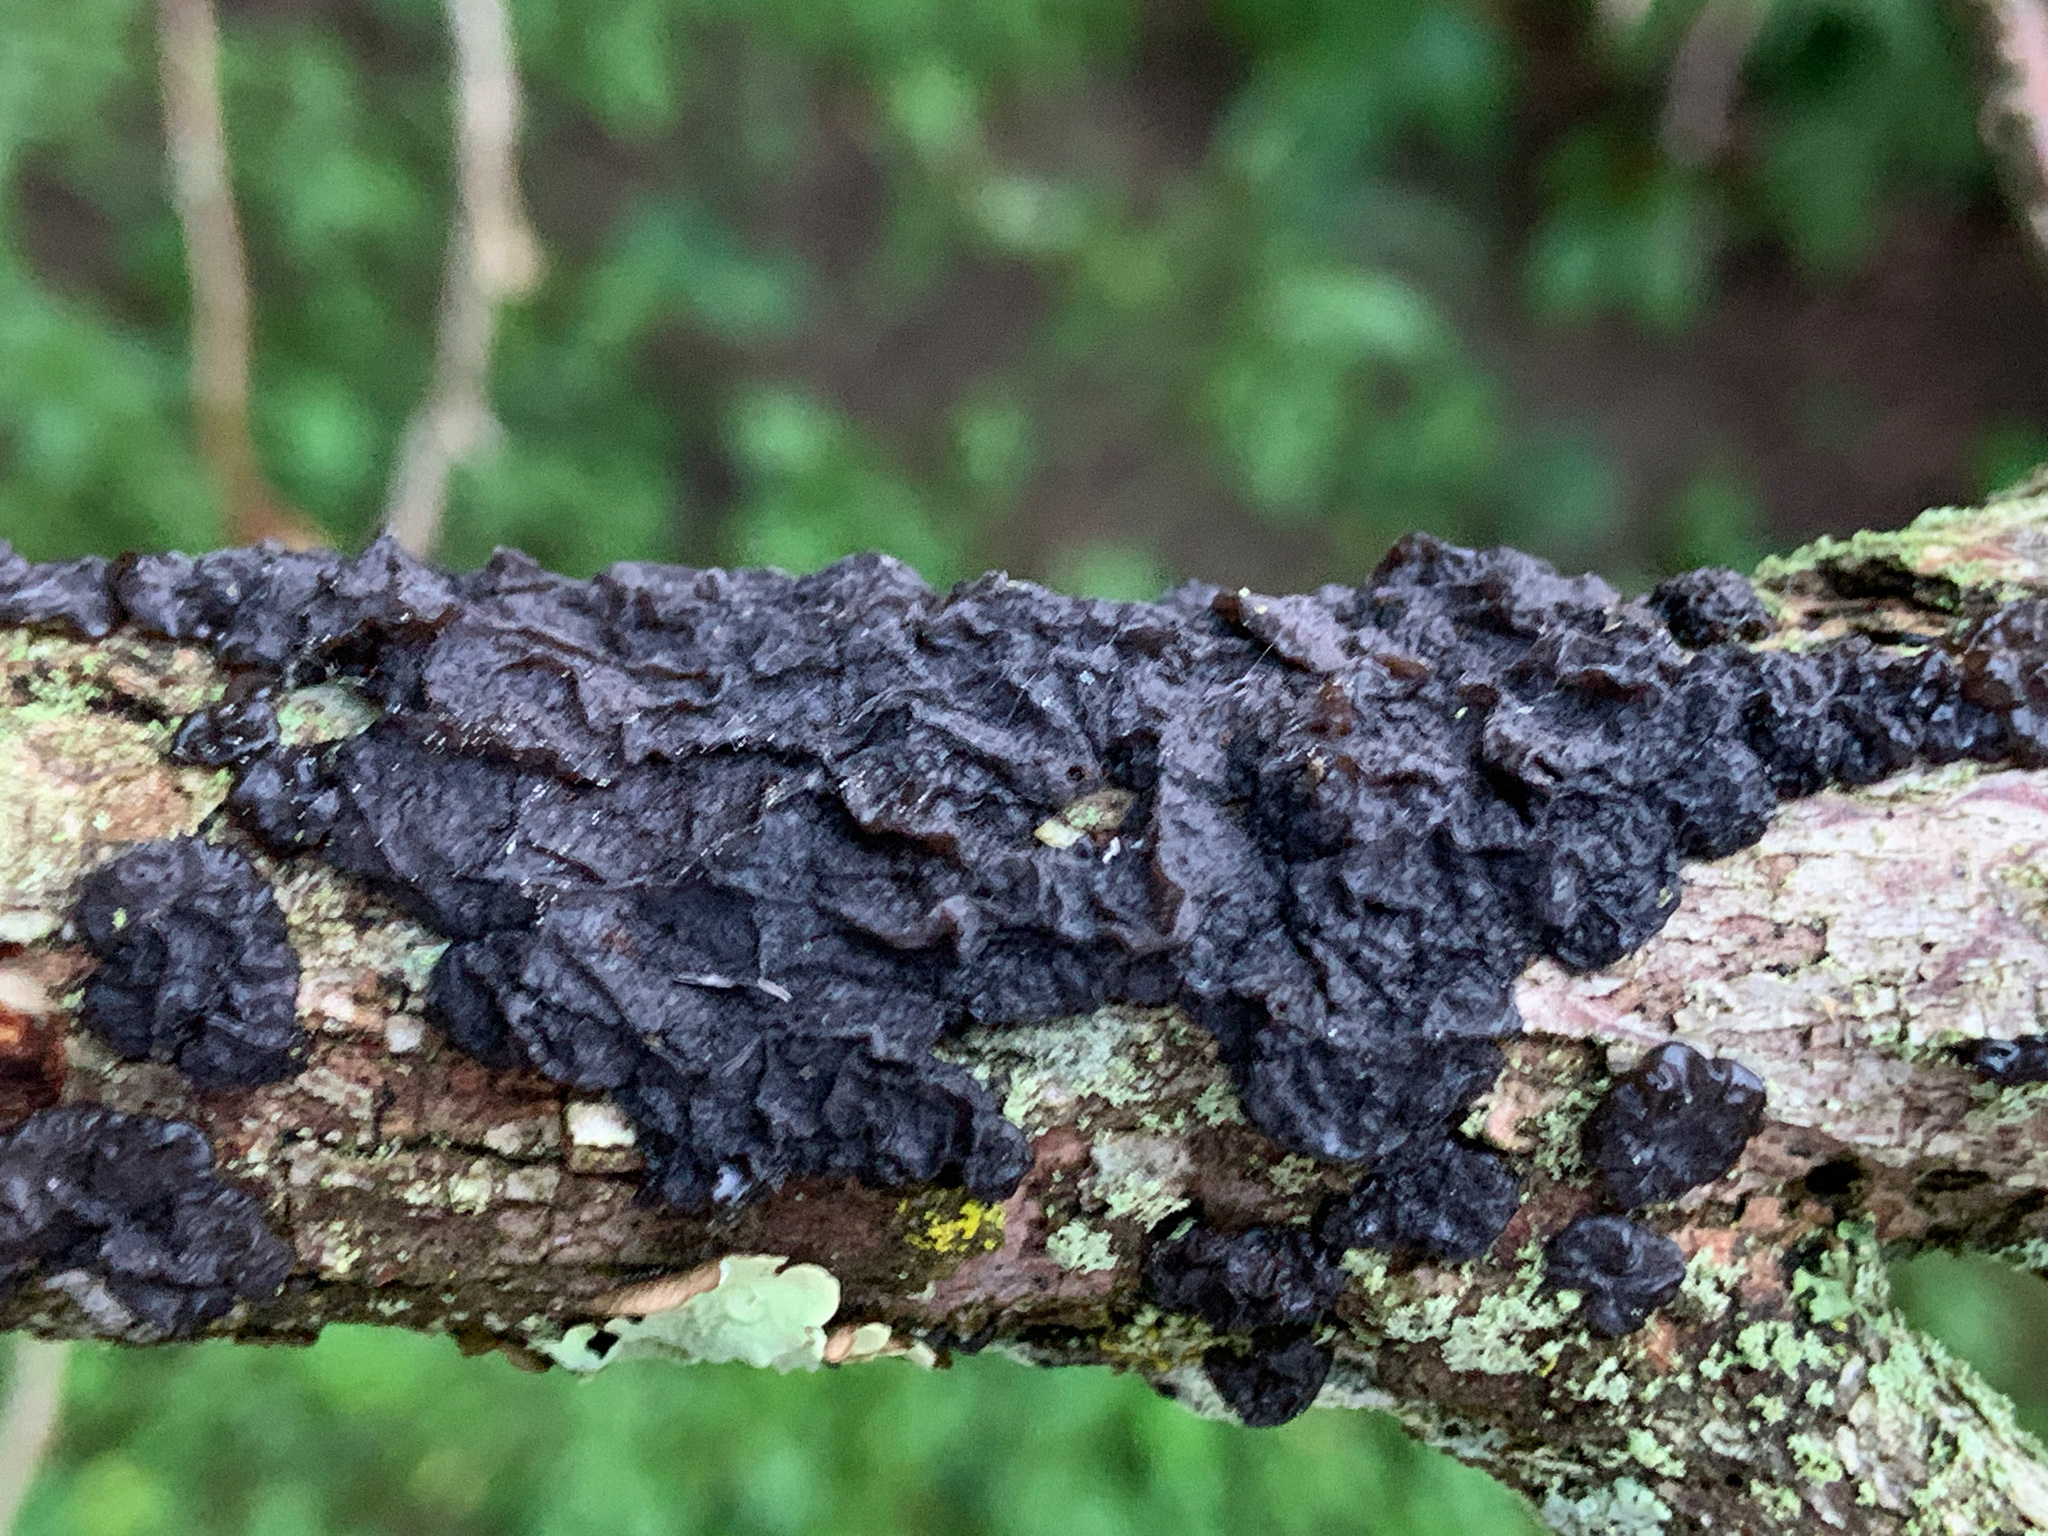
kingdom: Fungi
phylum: Basidiomycota
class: Agaricomycetes
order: Auriculariales
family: Auriculariaceae
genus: Exidia
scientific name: Exidia glandulosa
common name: Witches' butter
